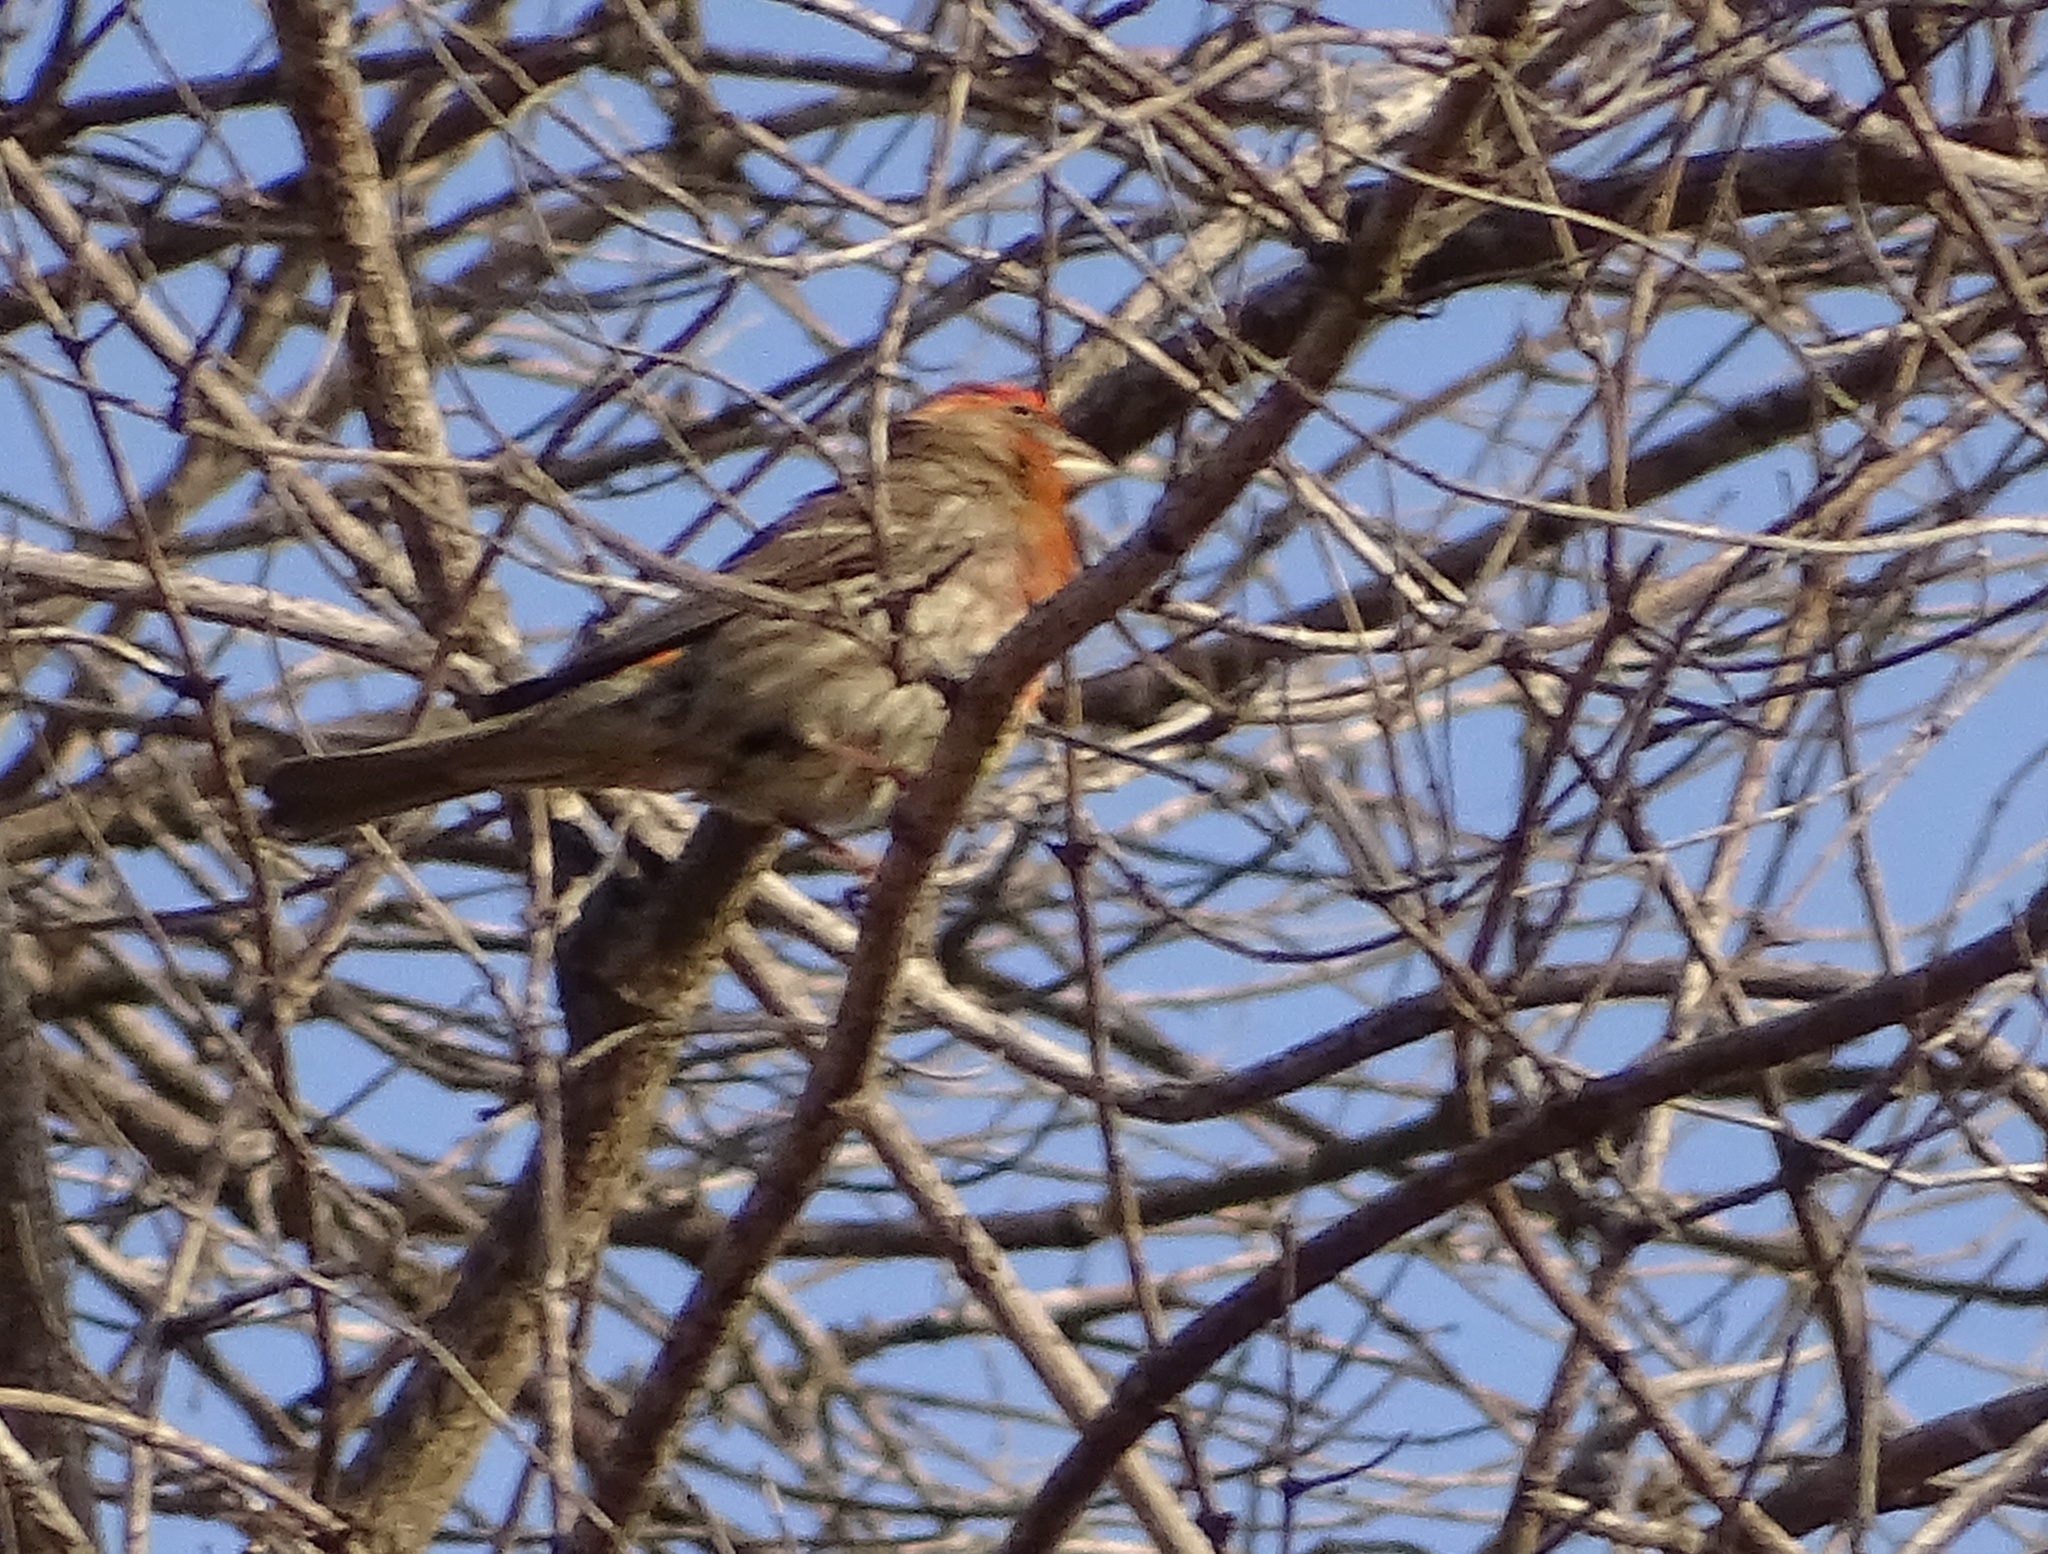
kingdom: Animalia
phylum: Chordata
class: Aves
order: Passeriformes
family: Fringillidae
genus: Haemorhous
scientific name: Haemorhous mexicanus
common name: House finch
